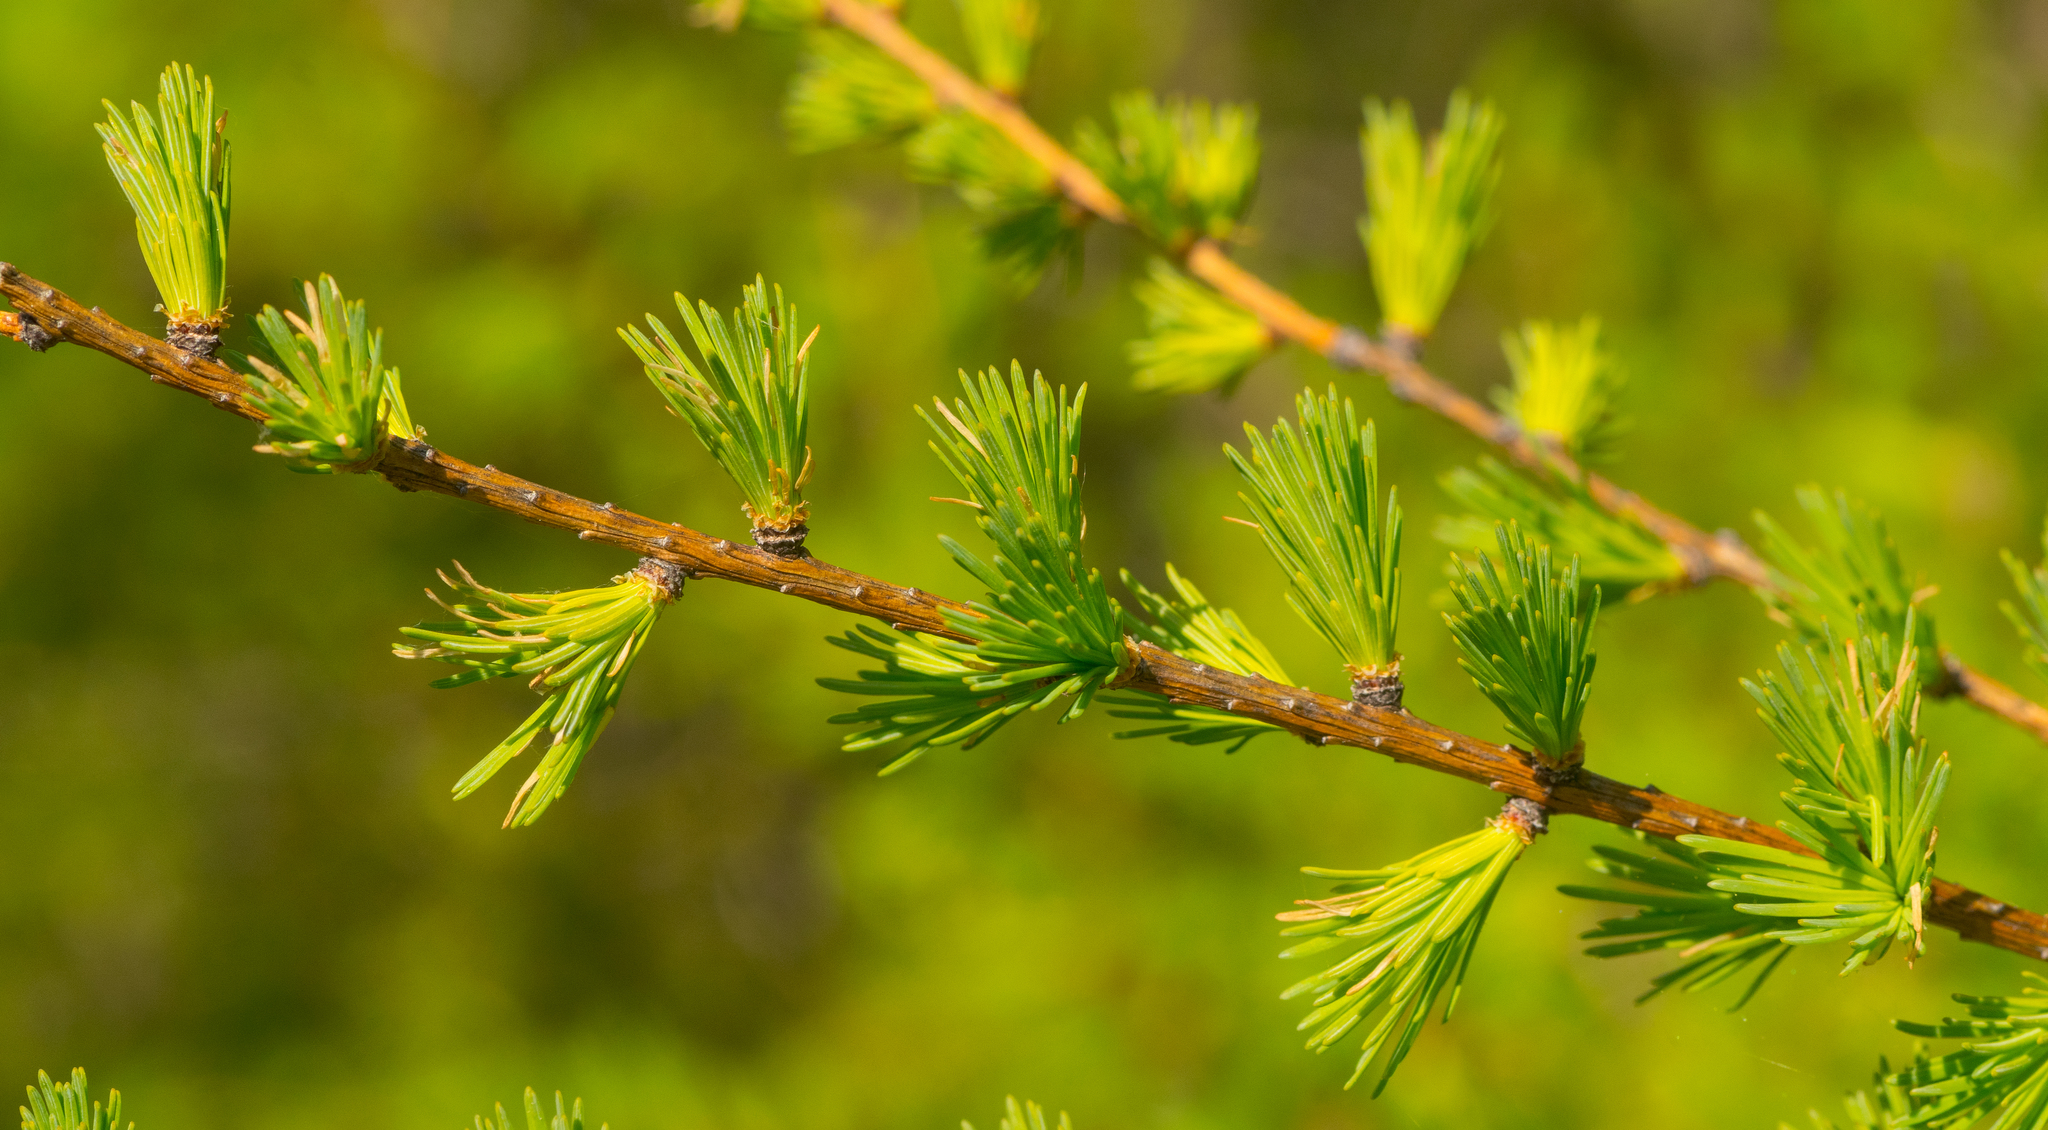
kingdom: Plantae
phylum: Tracheophyta
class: Pinopsida
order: Pinales
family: Pinaceae
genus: Larix
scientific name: Larix laricina
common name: American larch
